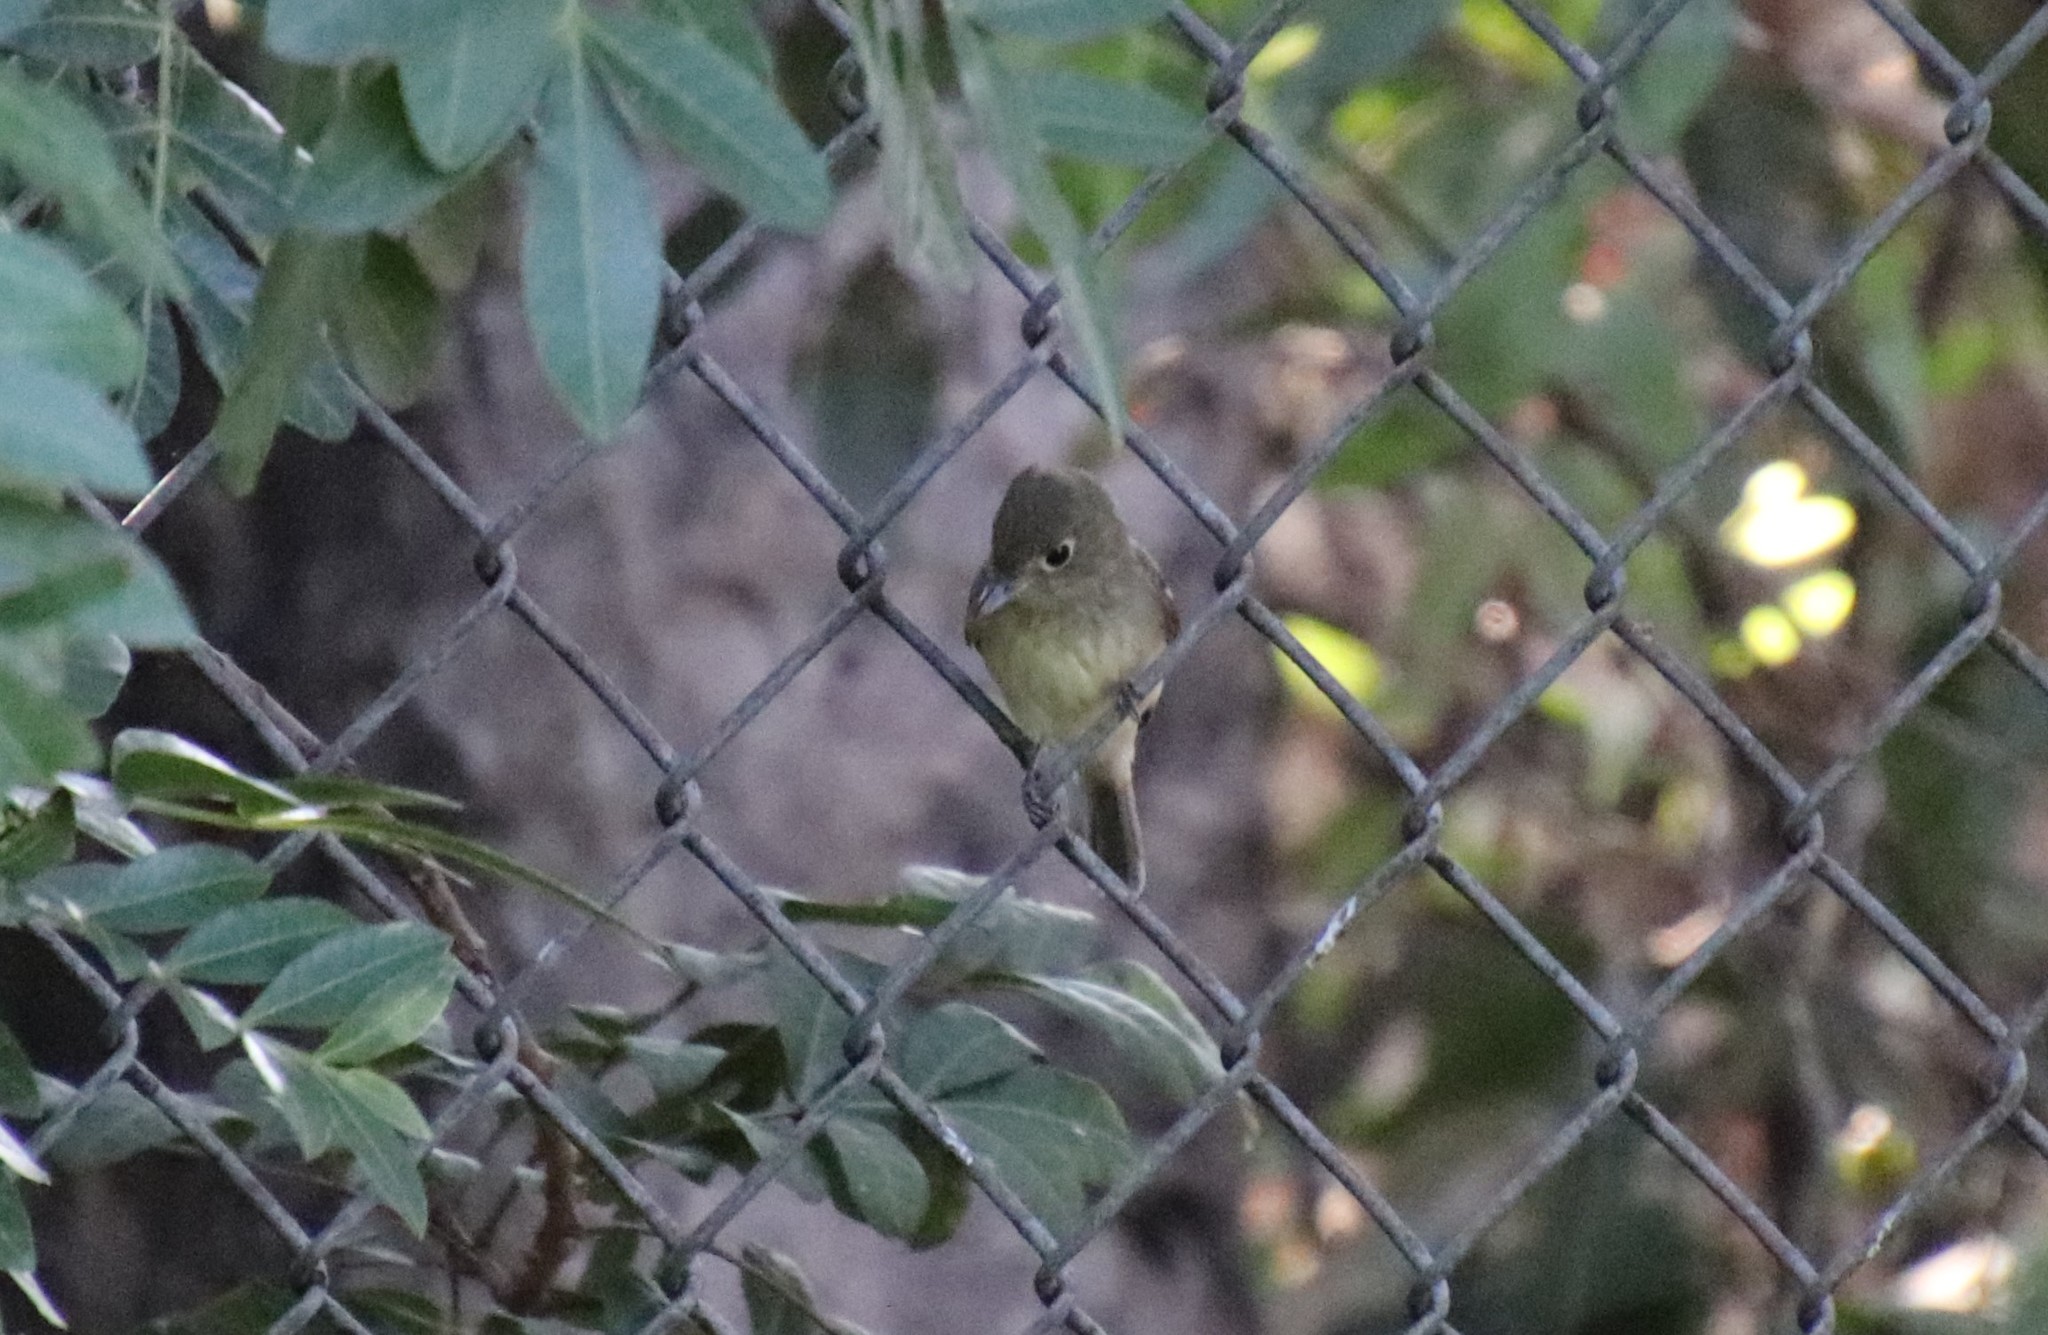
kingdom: Animalia
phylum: Chordata
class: Aves
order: Passeriformes
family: Tyrannidae
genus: Empidonax
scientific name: Empidonax difficilis
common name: Pacific-slope flycatcher
